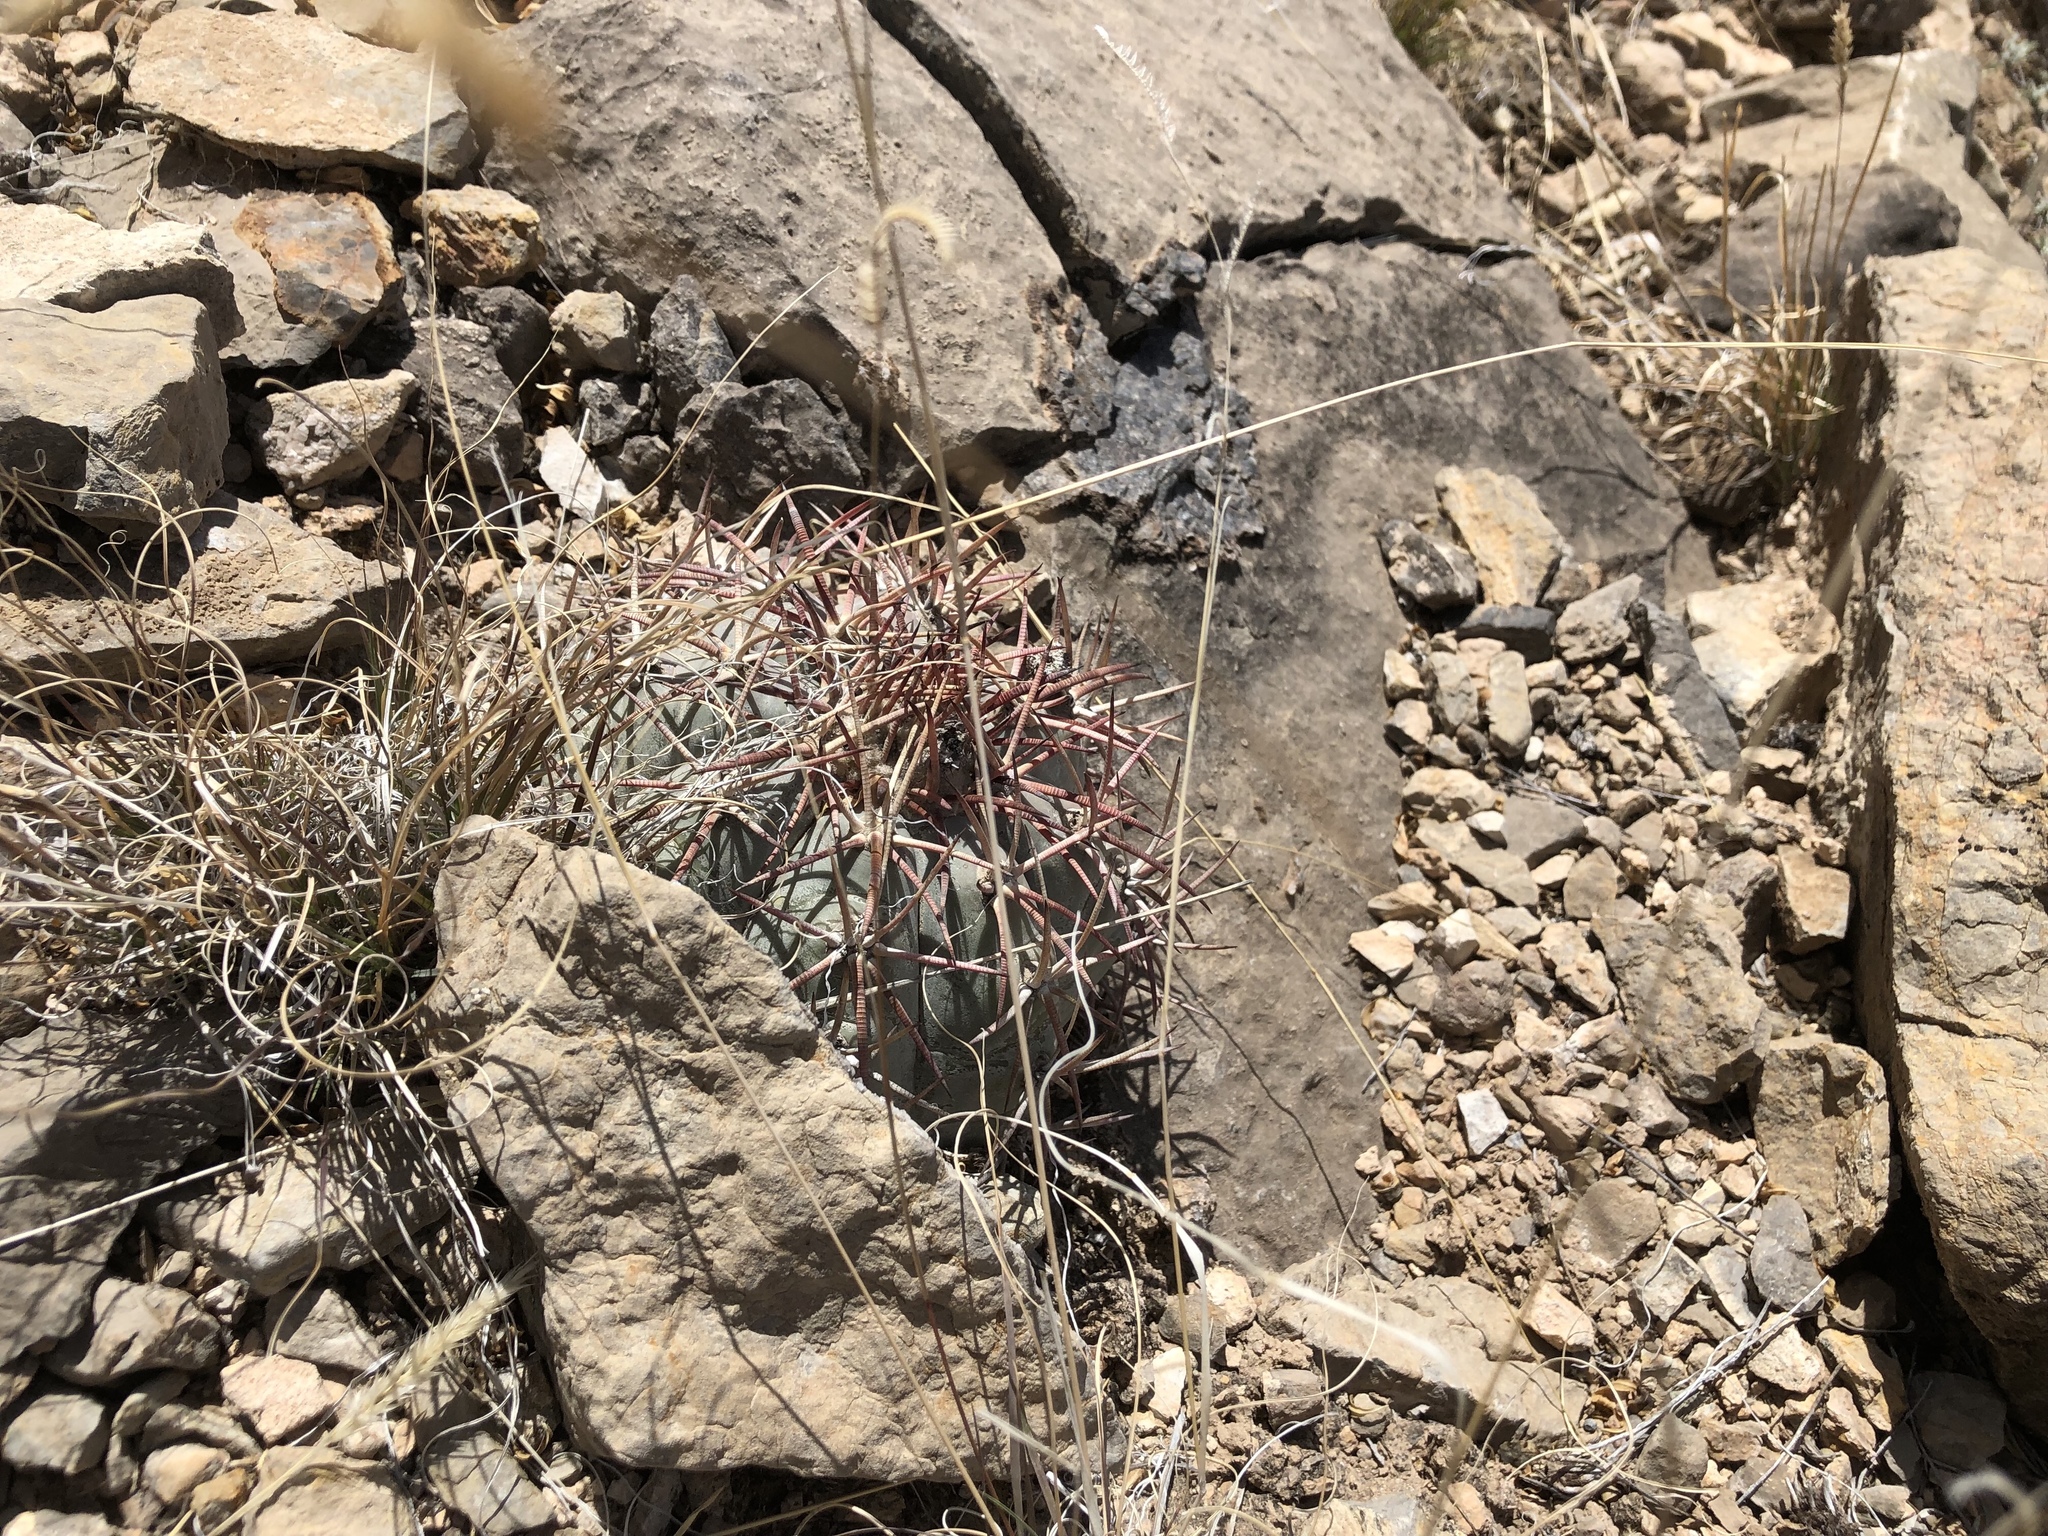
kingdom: Plantae
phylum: Tracheophyta
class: Magnoliopsida
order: Caryophyllales
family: Cactaceae
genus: Echinocactus
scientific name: Echinocactus horizonthalonius
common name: Devilshead
